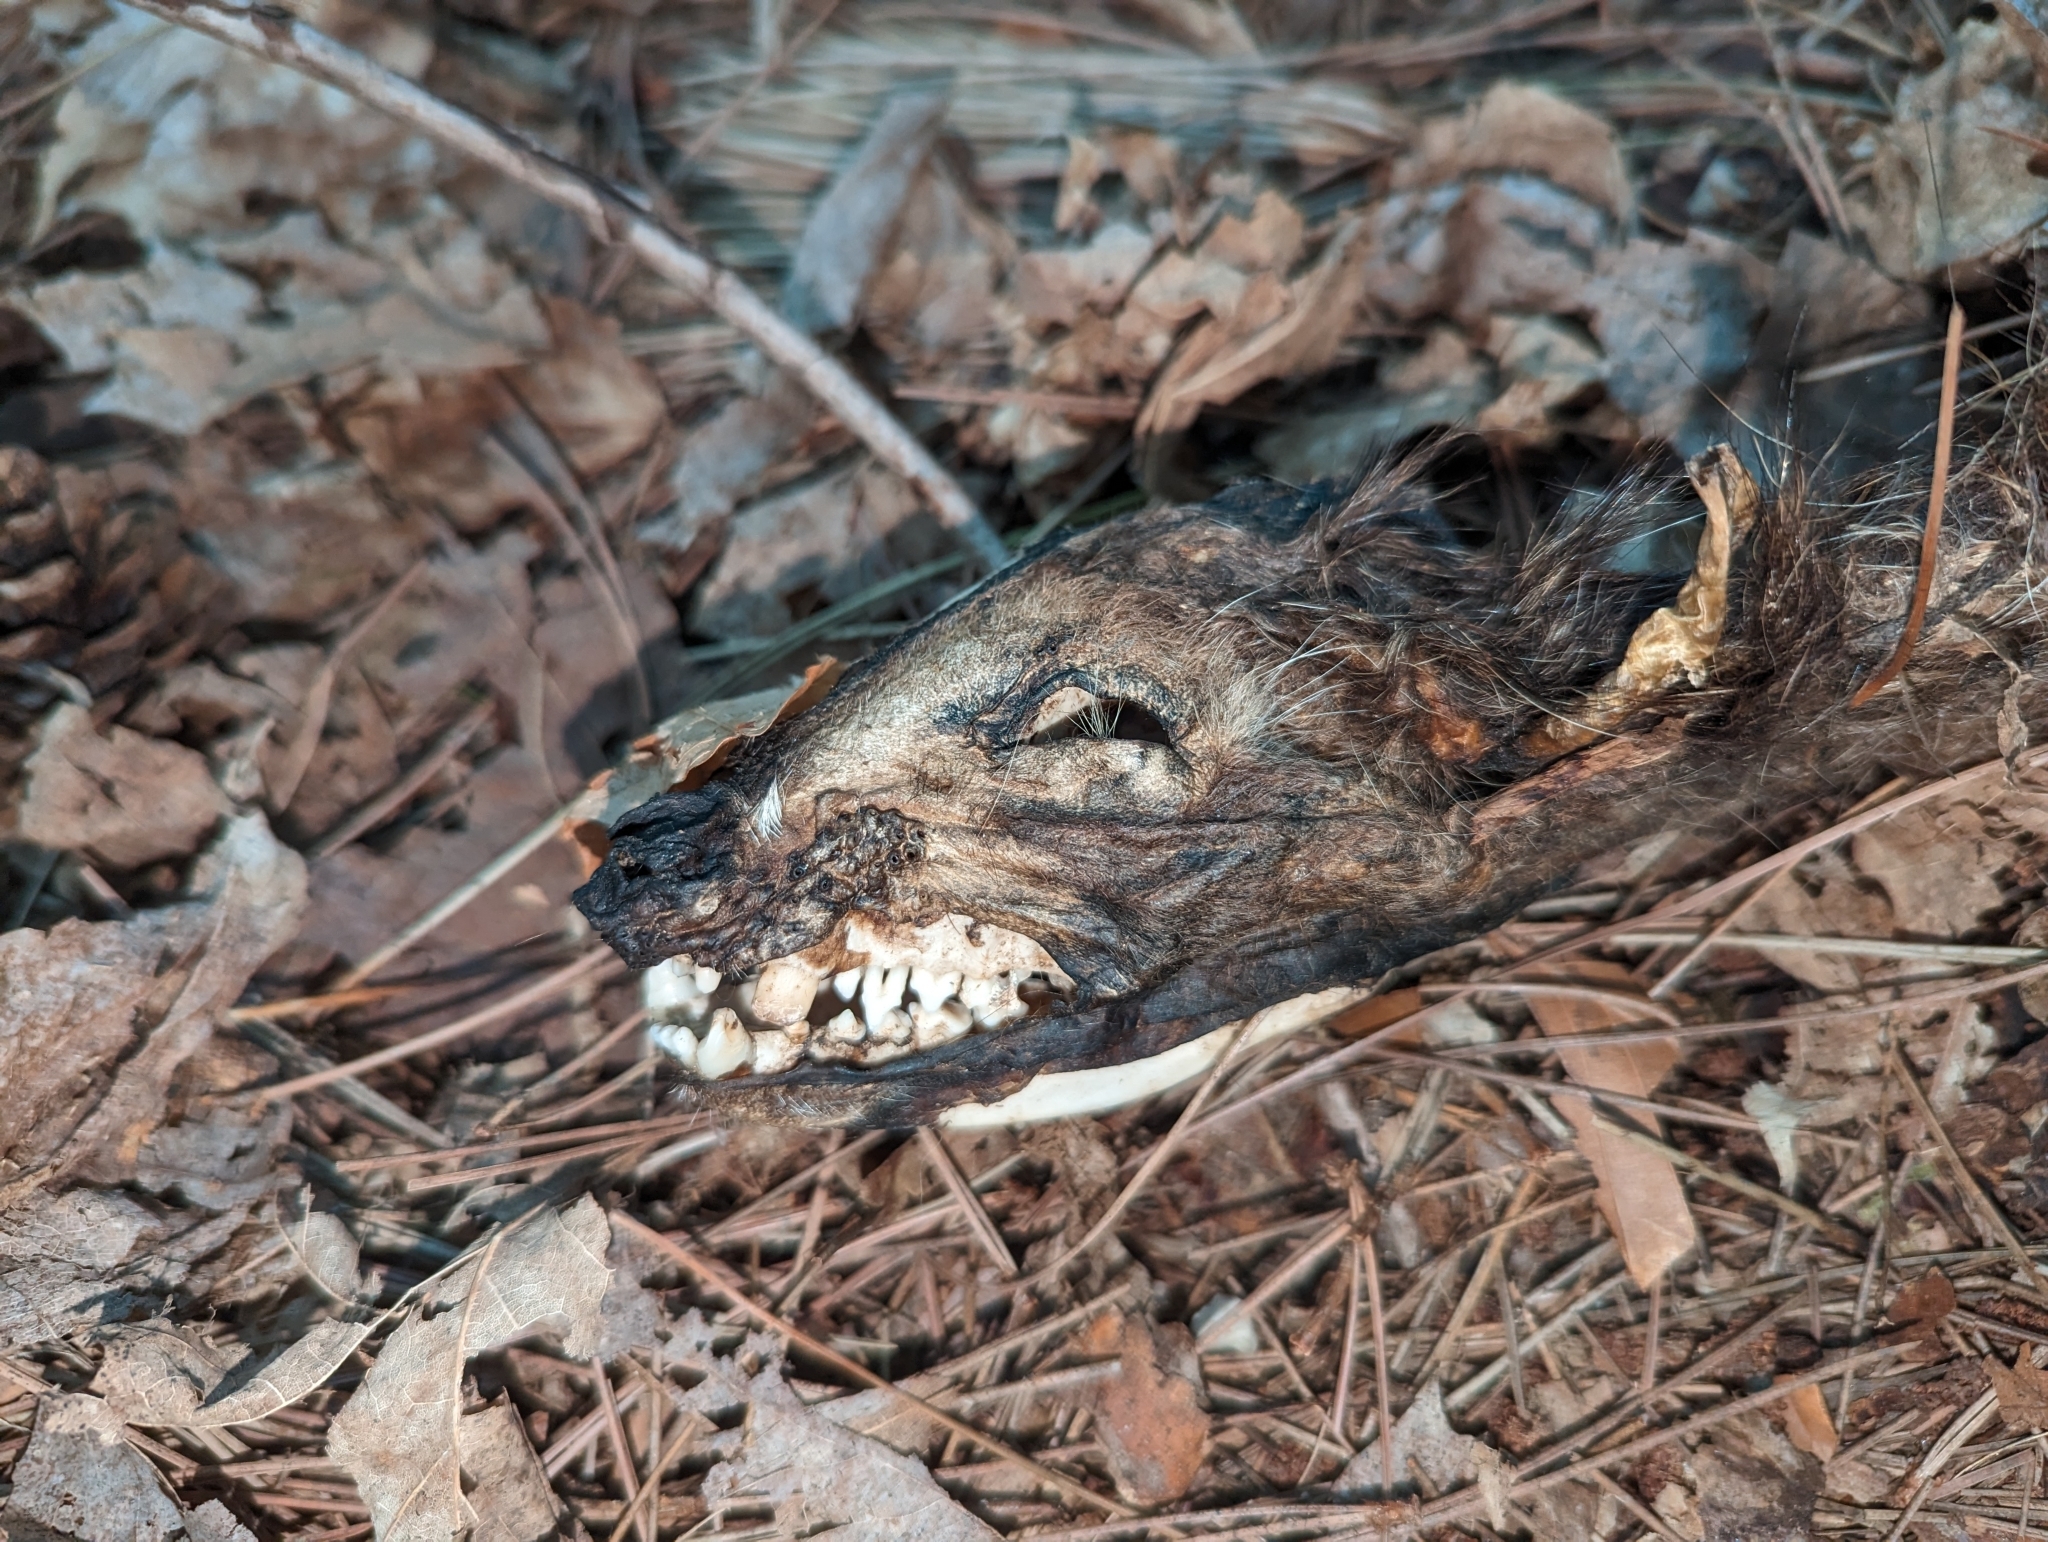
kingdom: Animalia
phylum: Chordata
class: Mammalia
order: Carnivora
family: Procyonidae
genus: Procyon
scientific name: Procyon lotor
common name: Raccoon
